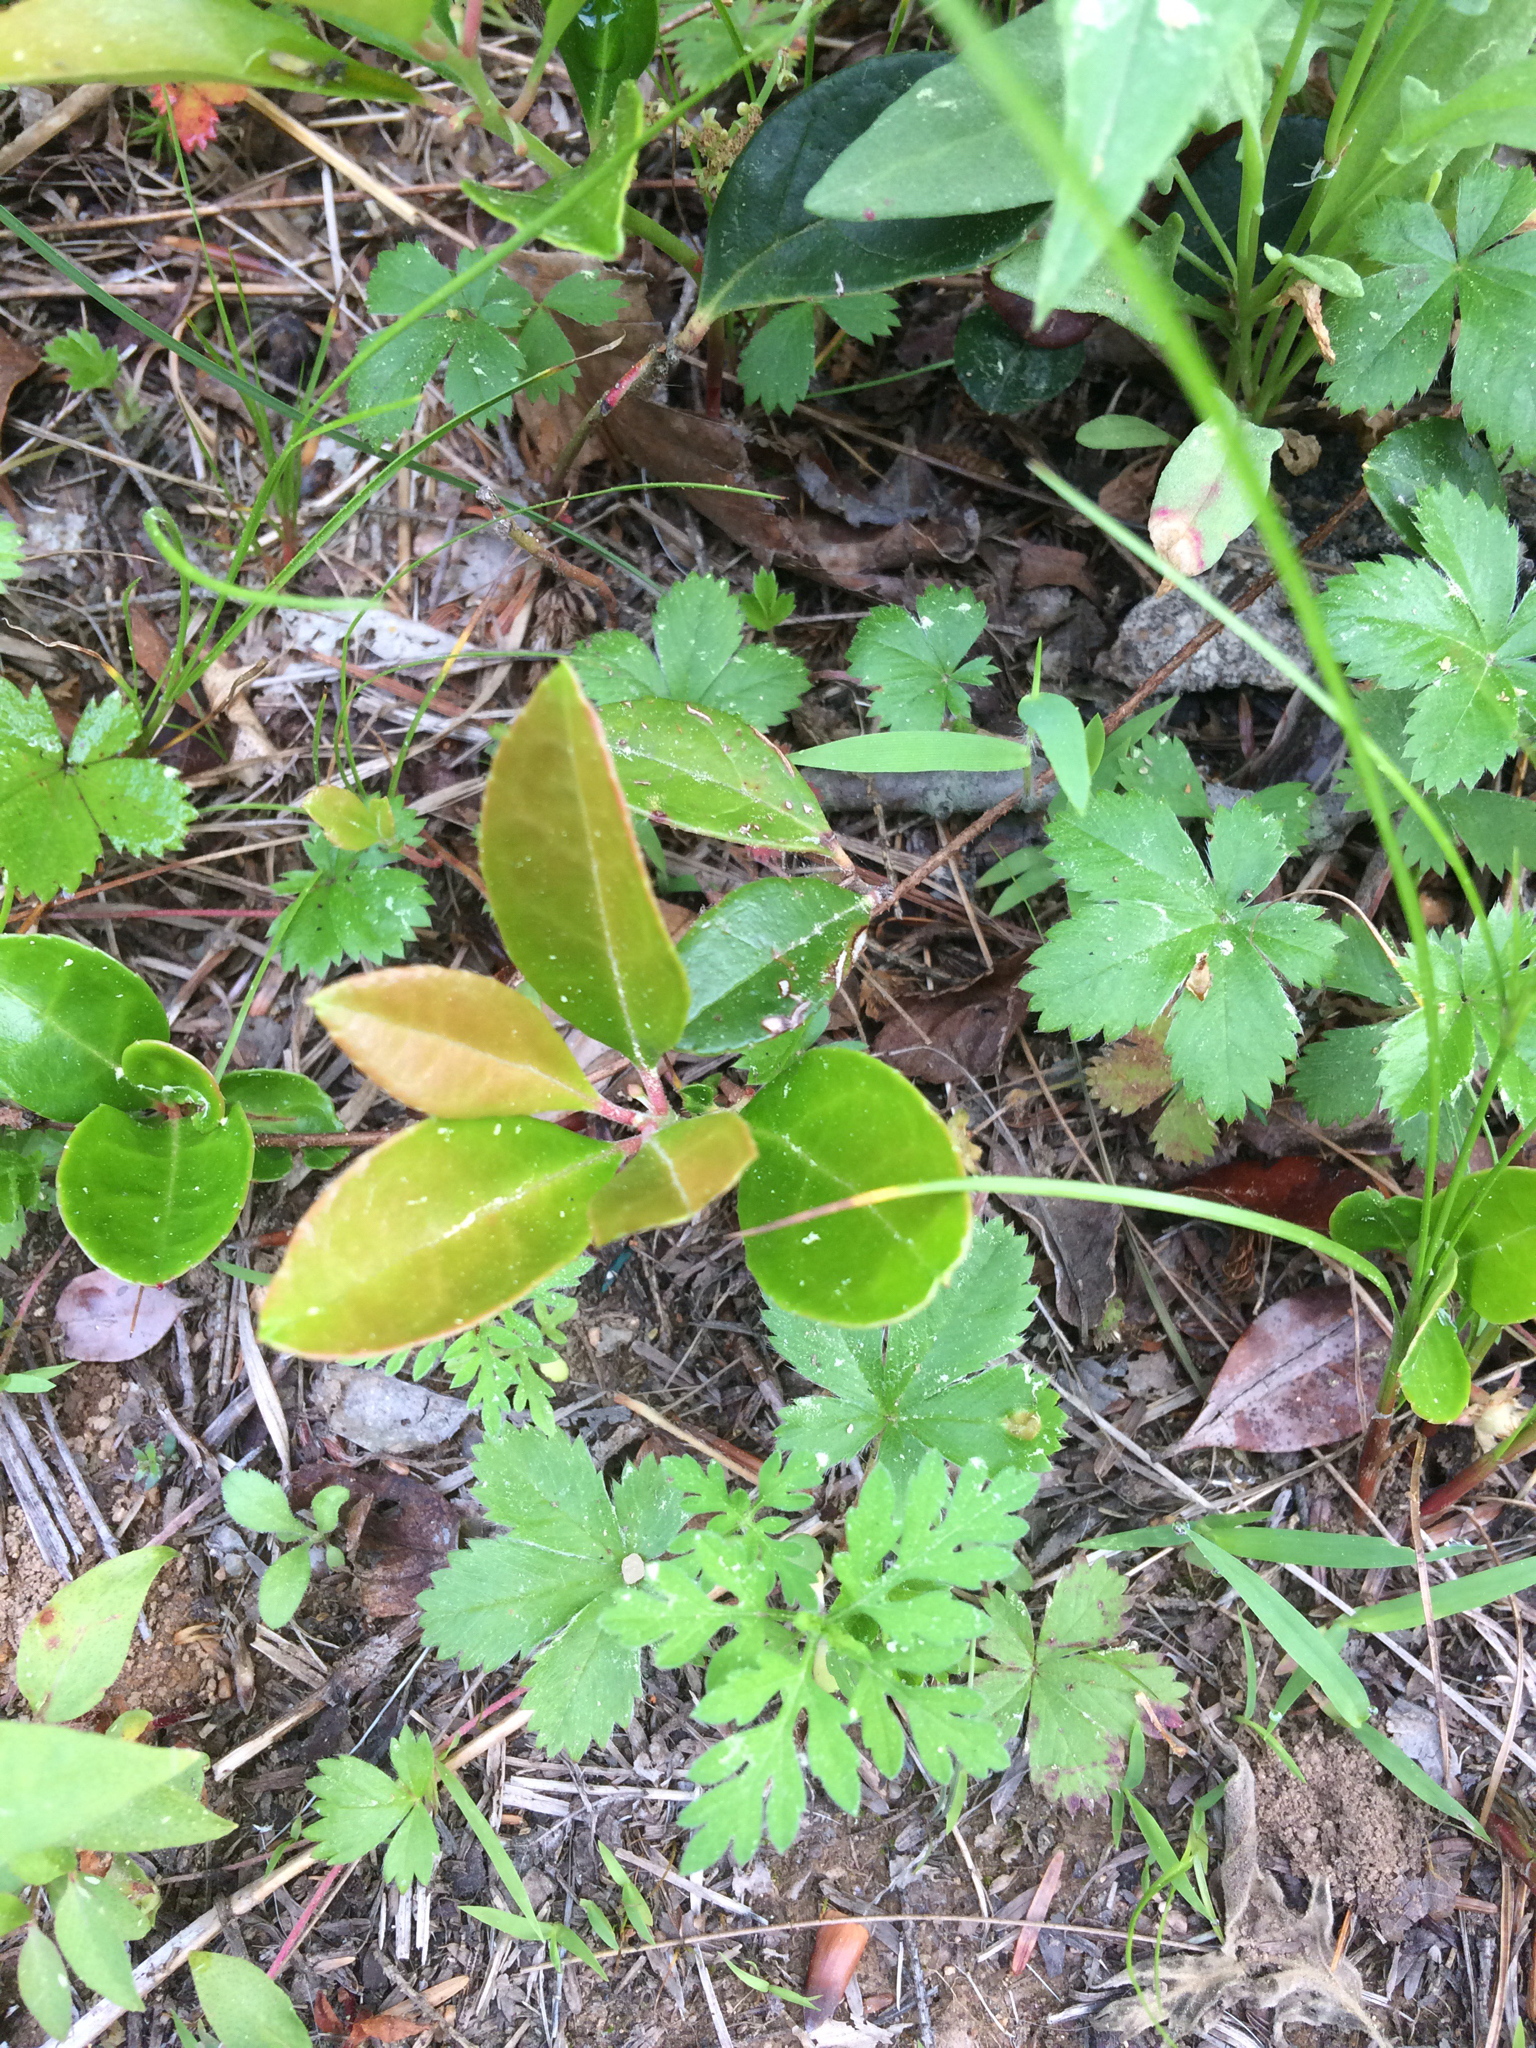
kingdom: Plantae
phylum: Tracheophyta
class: Magnoliopsida
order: Ericales
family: Ericaceae
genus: Gaultheria
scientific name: Gaultheria procumbens
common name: Checkerberry
